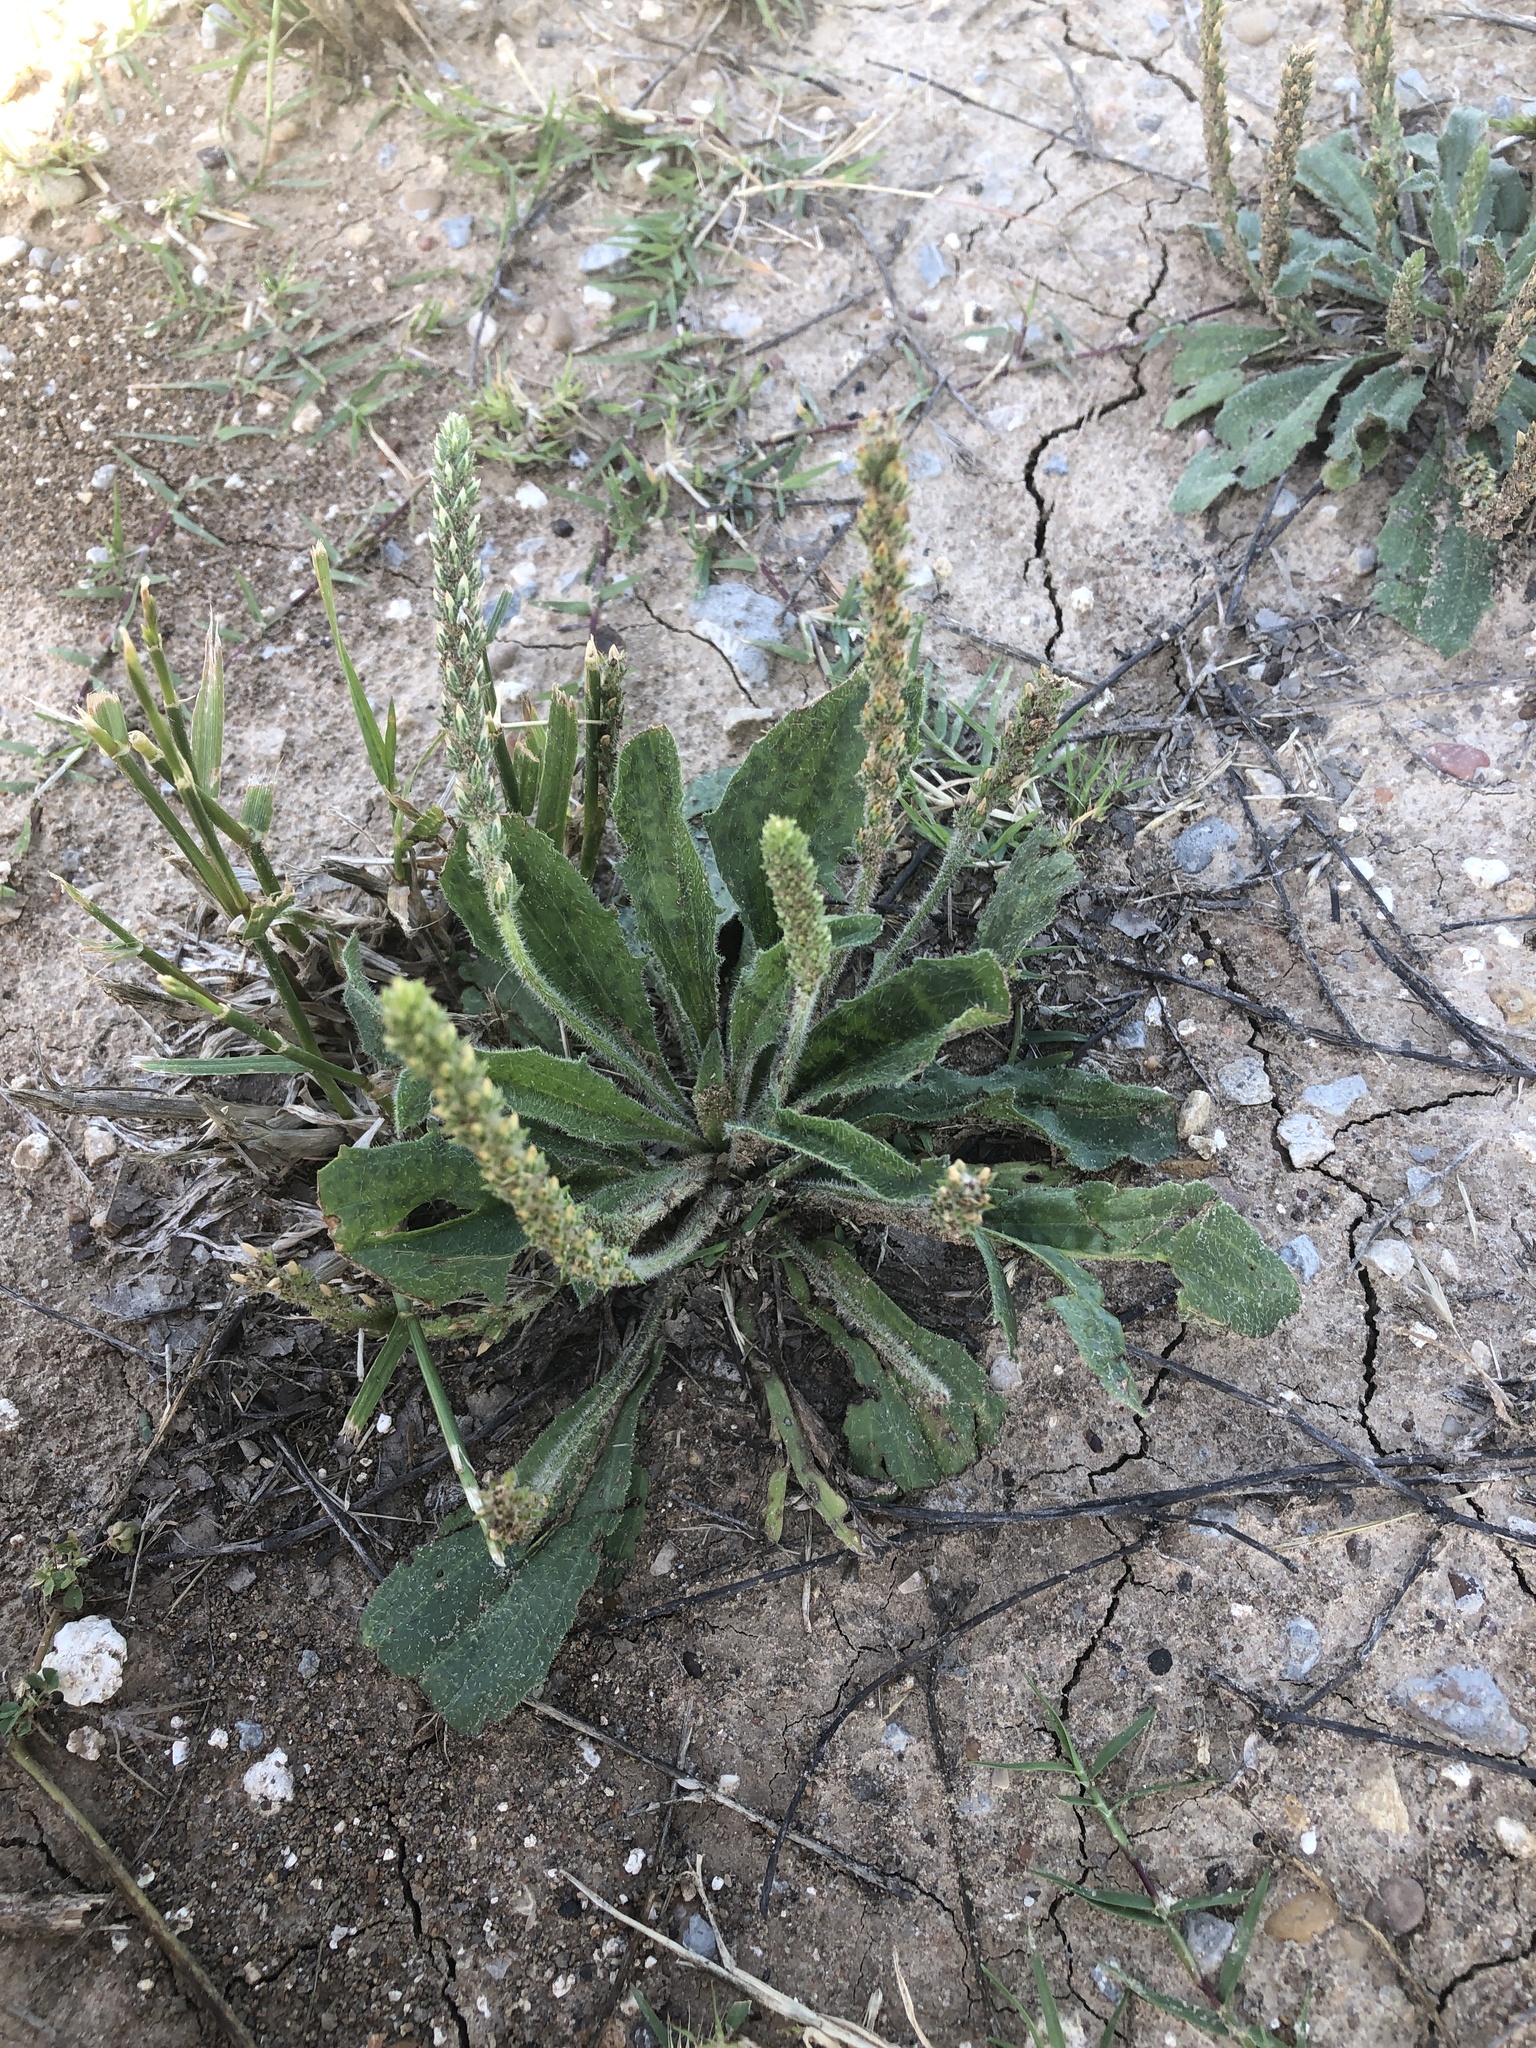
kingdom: Plantae
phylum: Tracheophyta
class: Magnoliopsida
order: Lamiales
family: Plantaginaceae
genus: Plantago
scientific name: Plantago rhodosperma
